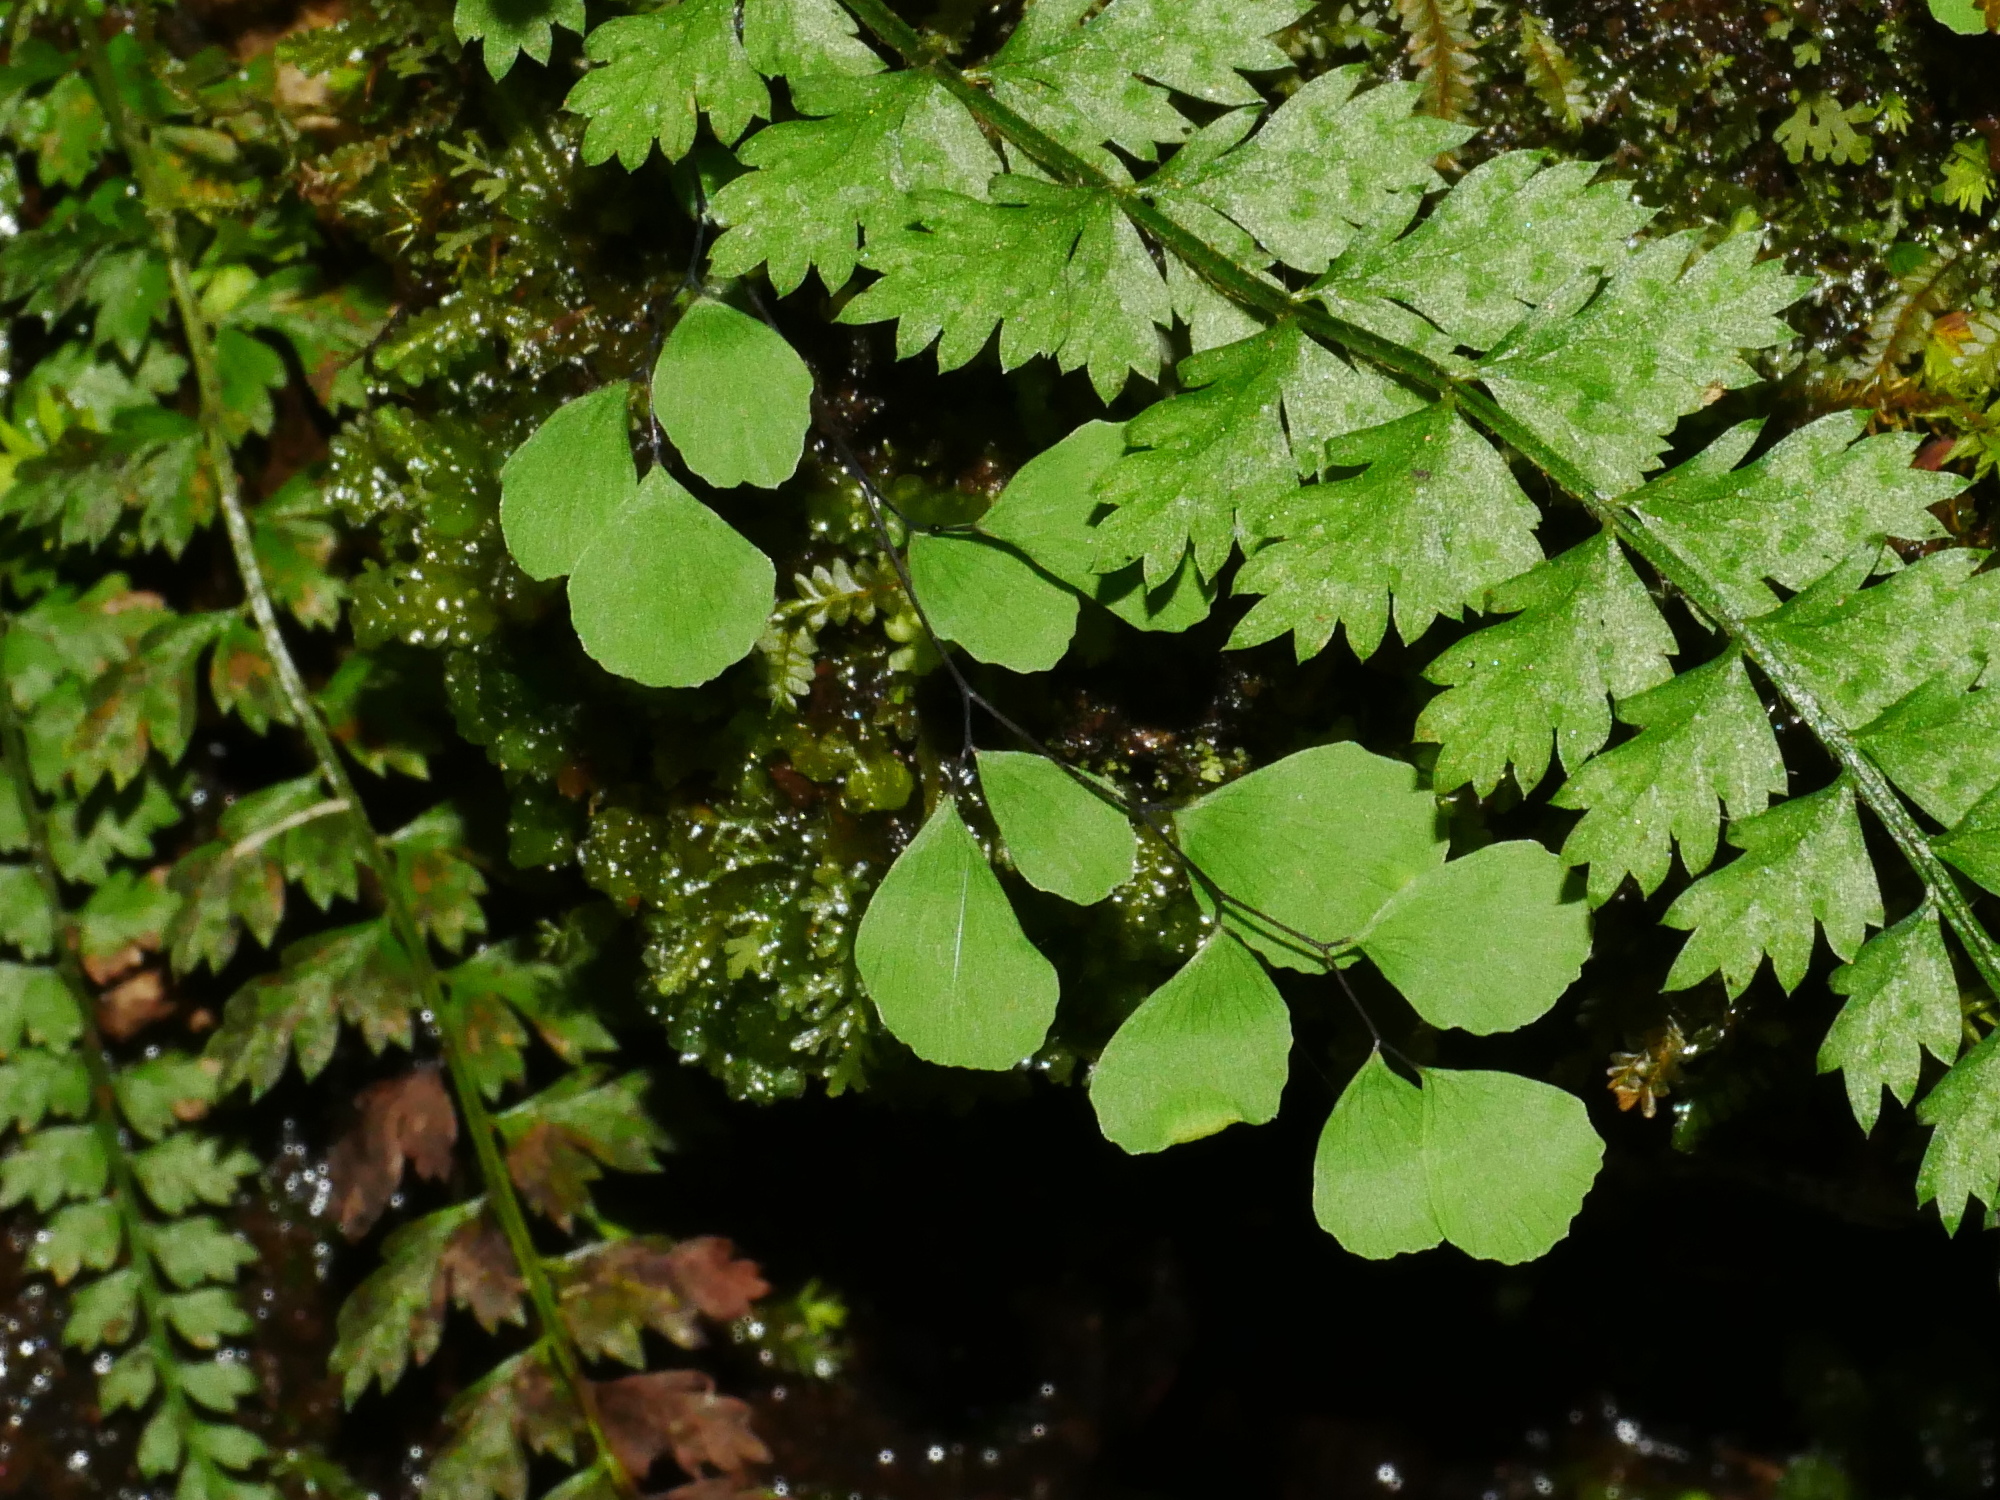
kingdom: Plantae
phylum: Tracheophyta
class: Polypodiopsida
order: Polypodiales
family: Pteridaceae
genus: Adiantum
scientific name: Adiantum formosanum
